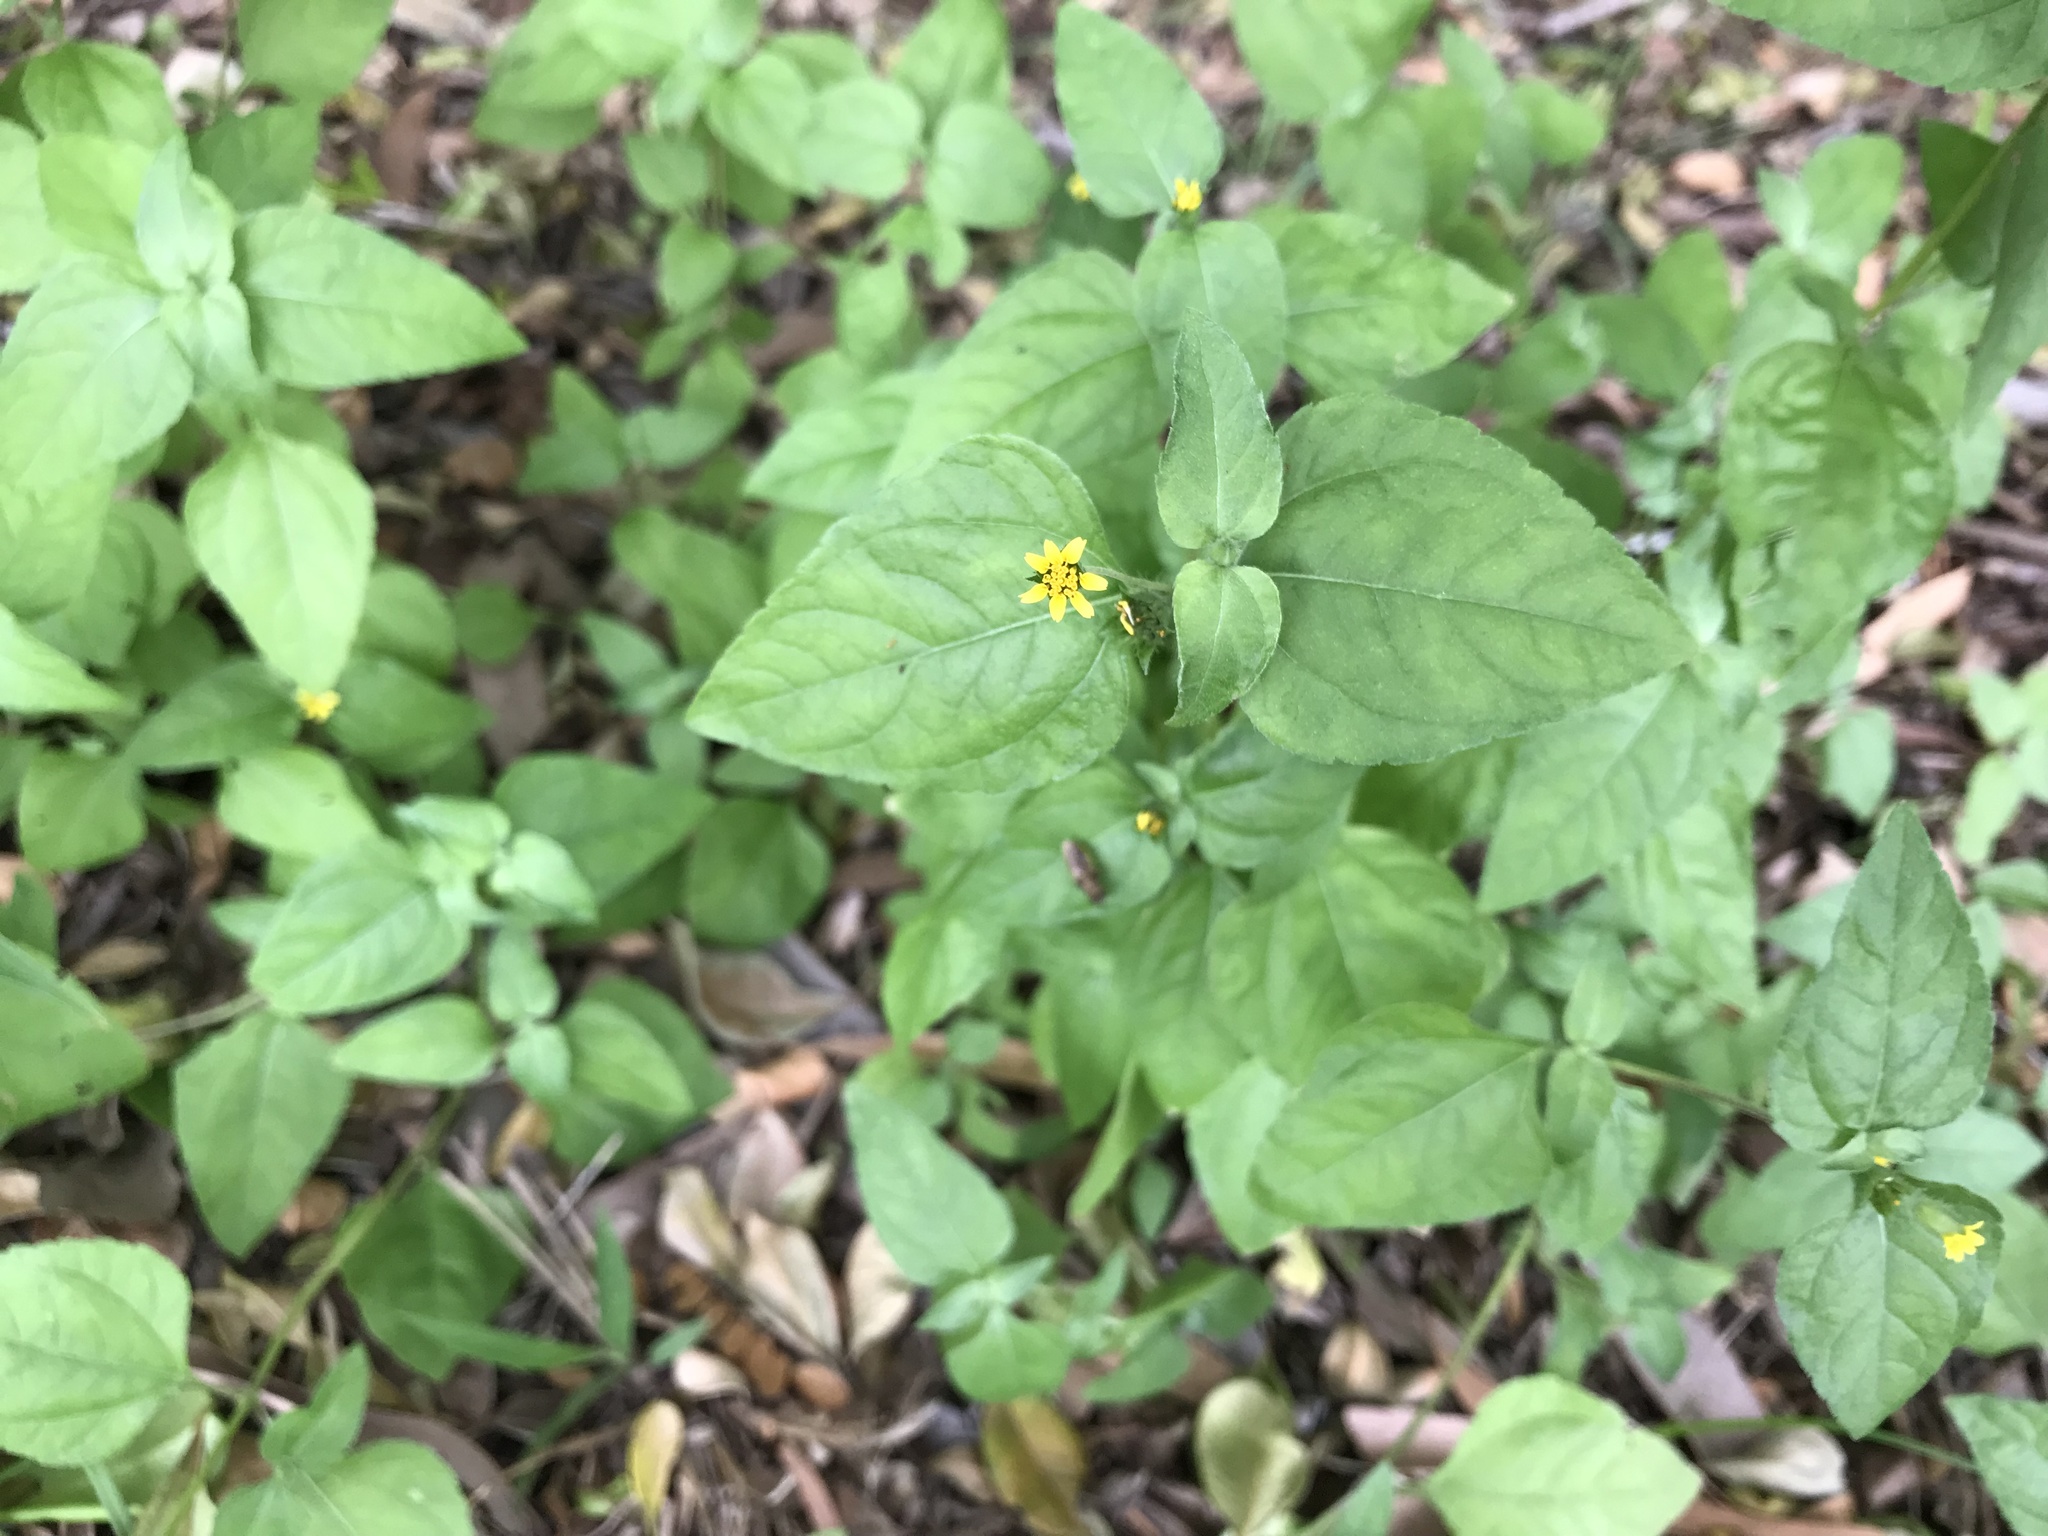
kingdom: Plantae
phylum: Tracheophyta
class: Magnoliopsida
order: Asterales
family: Asteraceae
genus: Calyptocarpus
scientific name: Calyptocarpus vialis
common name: Straggler daisy
